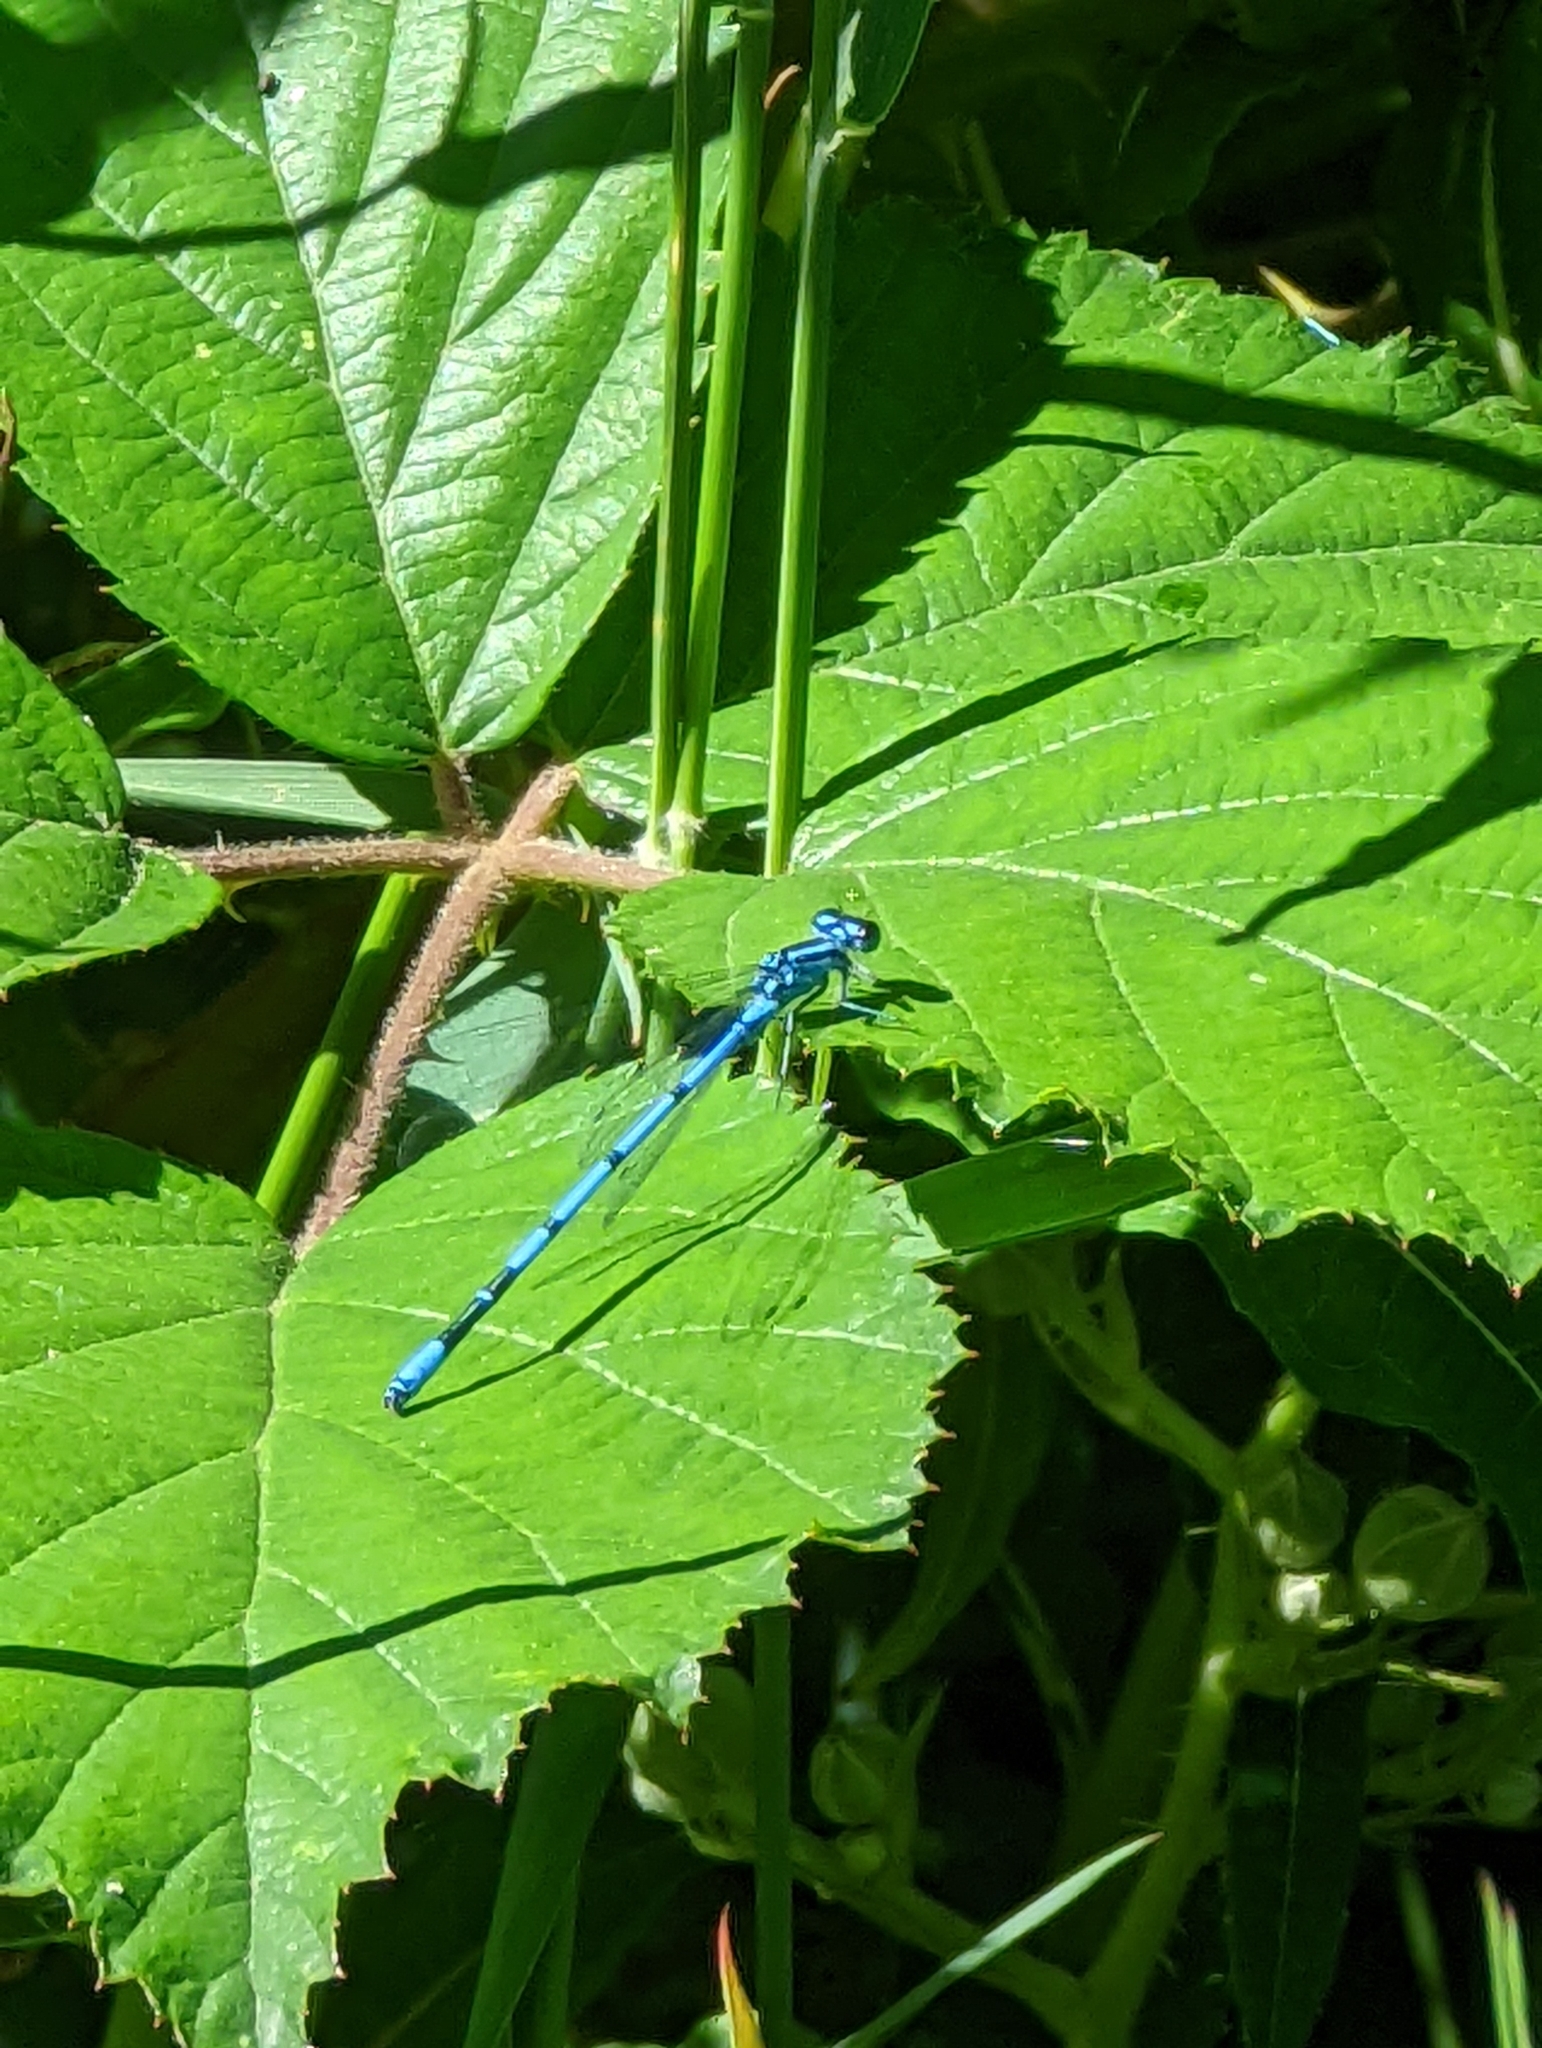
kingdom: Animalia
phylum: Arthropoda
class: Insecta
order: Odonata
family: Coenagrionidae
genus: Coenagrion
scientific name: Coenagrion puella
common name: Azure damselfly
